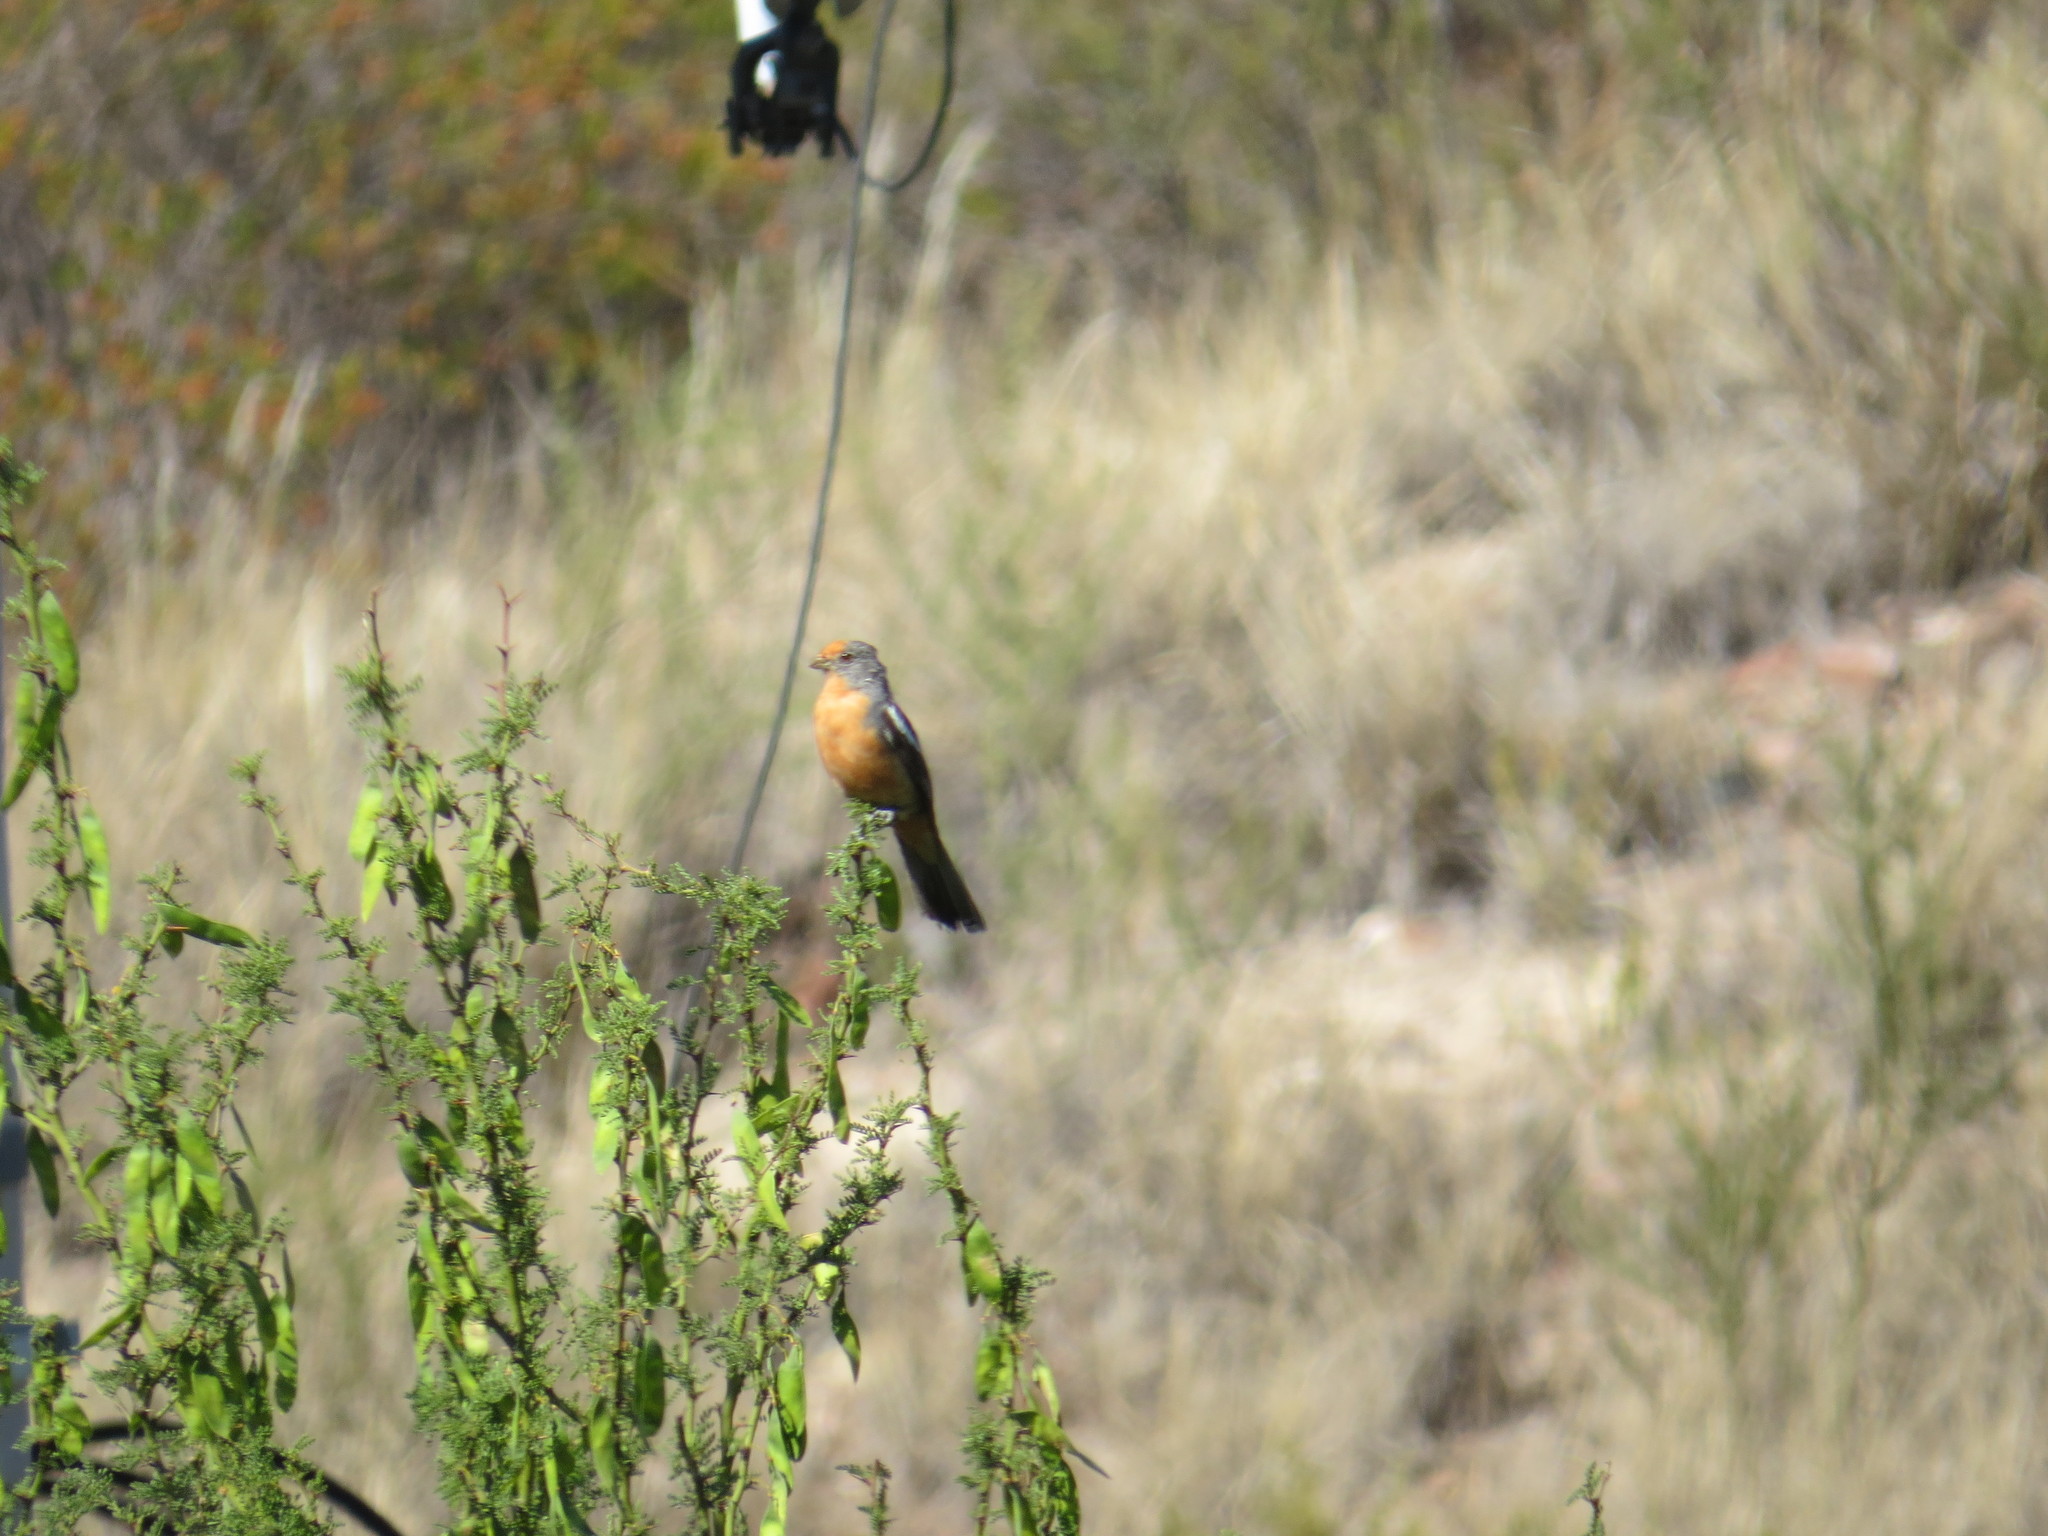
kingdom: Animalia
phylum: Chordata
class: Aves
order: Passeriformes
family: Cotingidae
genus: Phytotoma
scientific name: Phytotoma rutila
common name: White-tipped plantcutter
